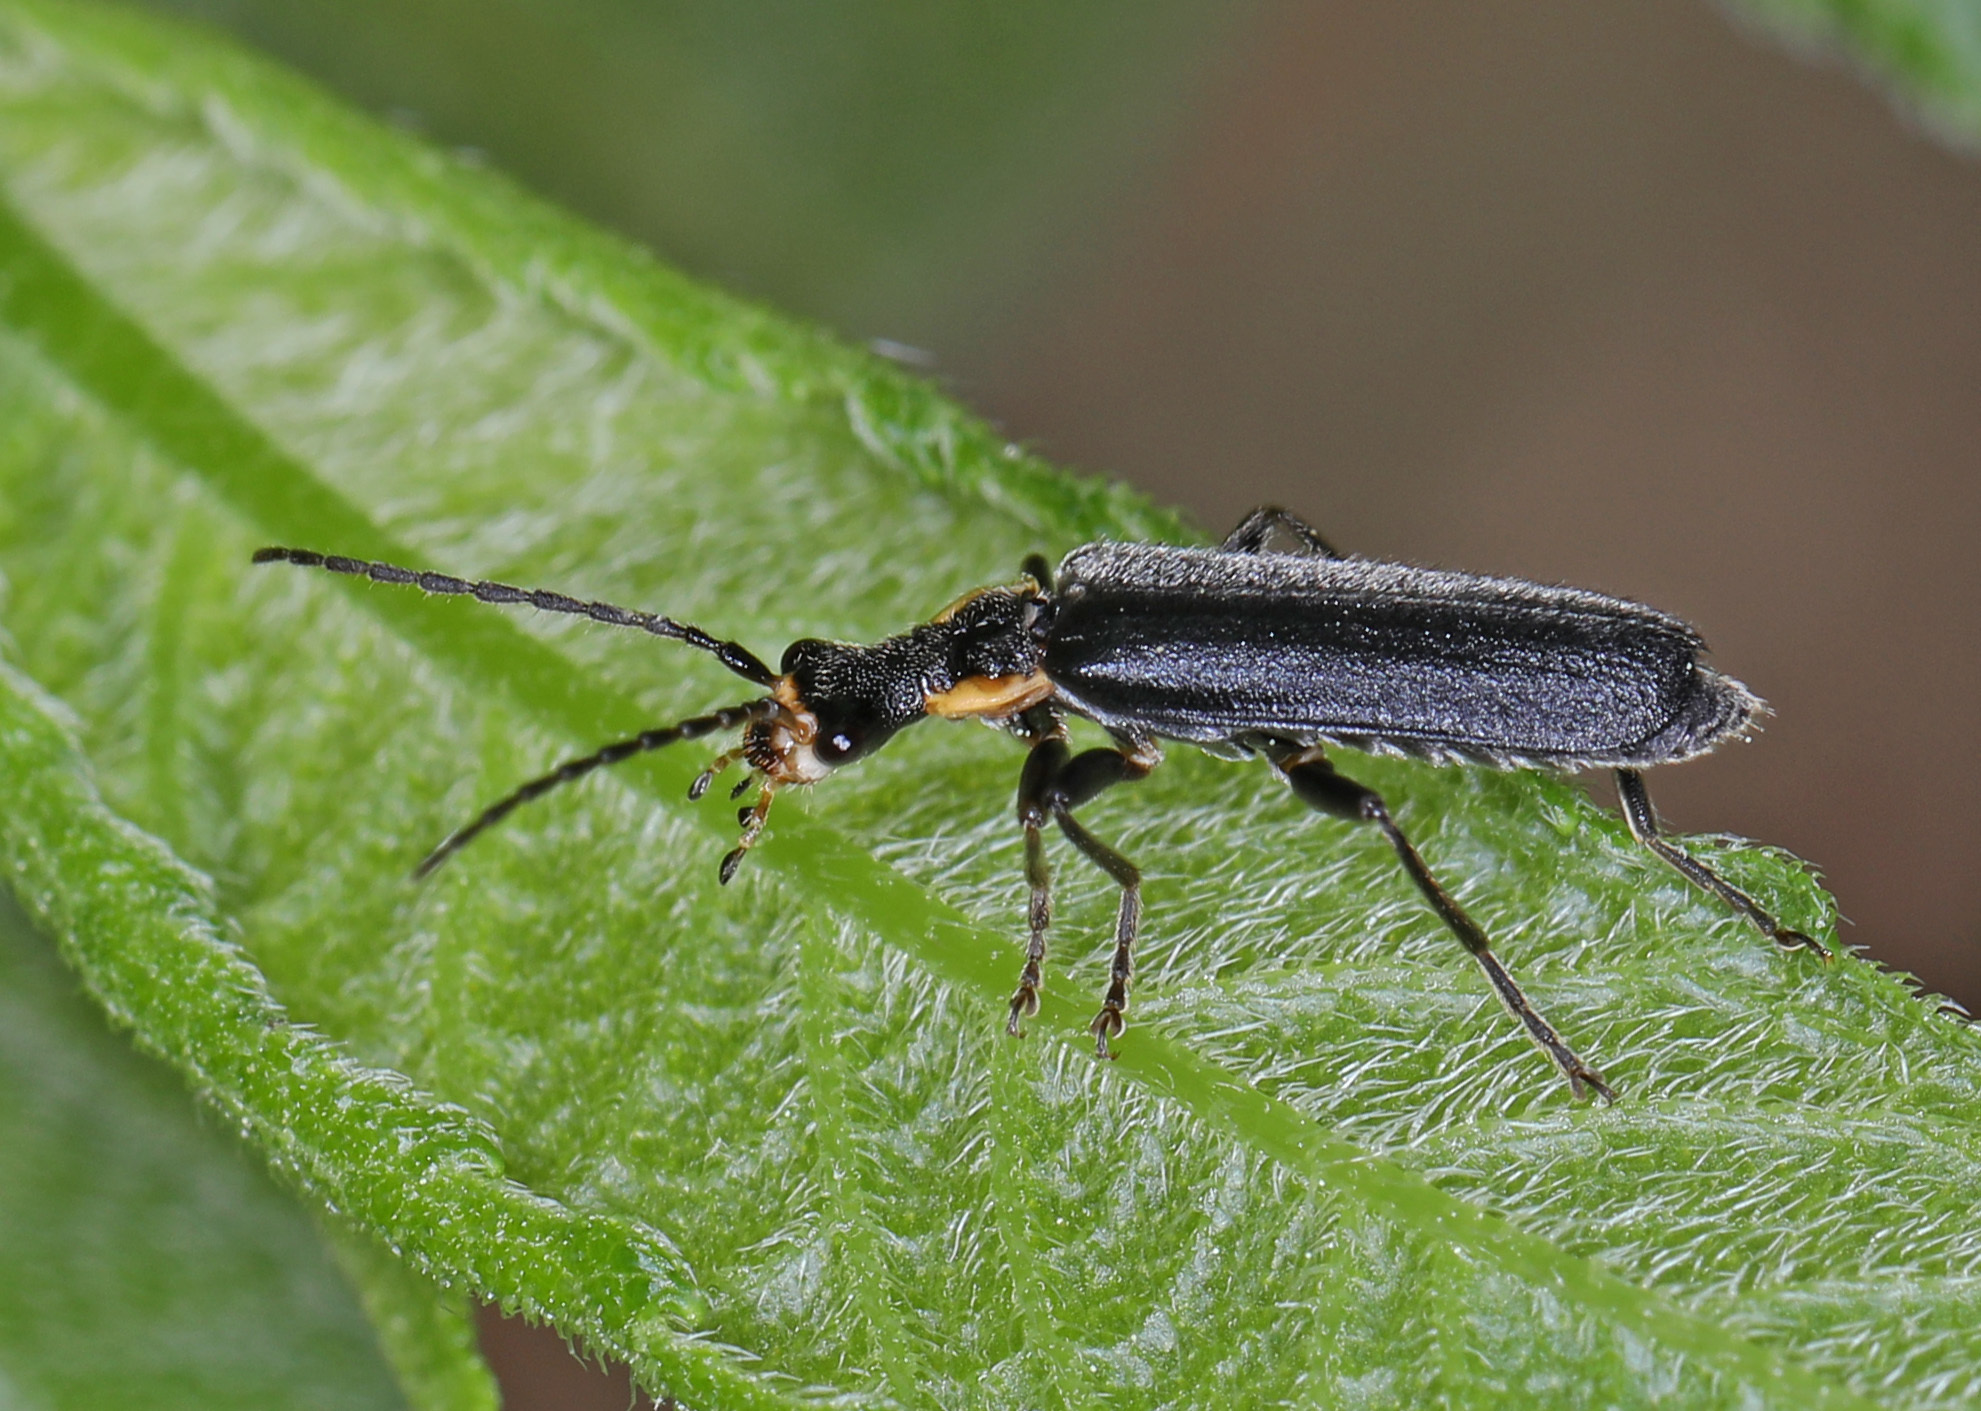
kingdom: Animalia
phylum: Arthropoda
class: Insecta
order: Coleoptera
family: Cantharidae
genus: Podabrus
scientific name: Podabrus rugosulus
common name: Wrinkled soldier beetle
